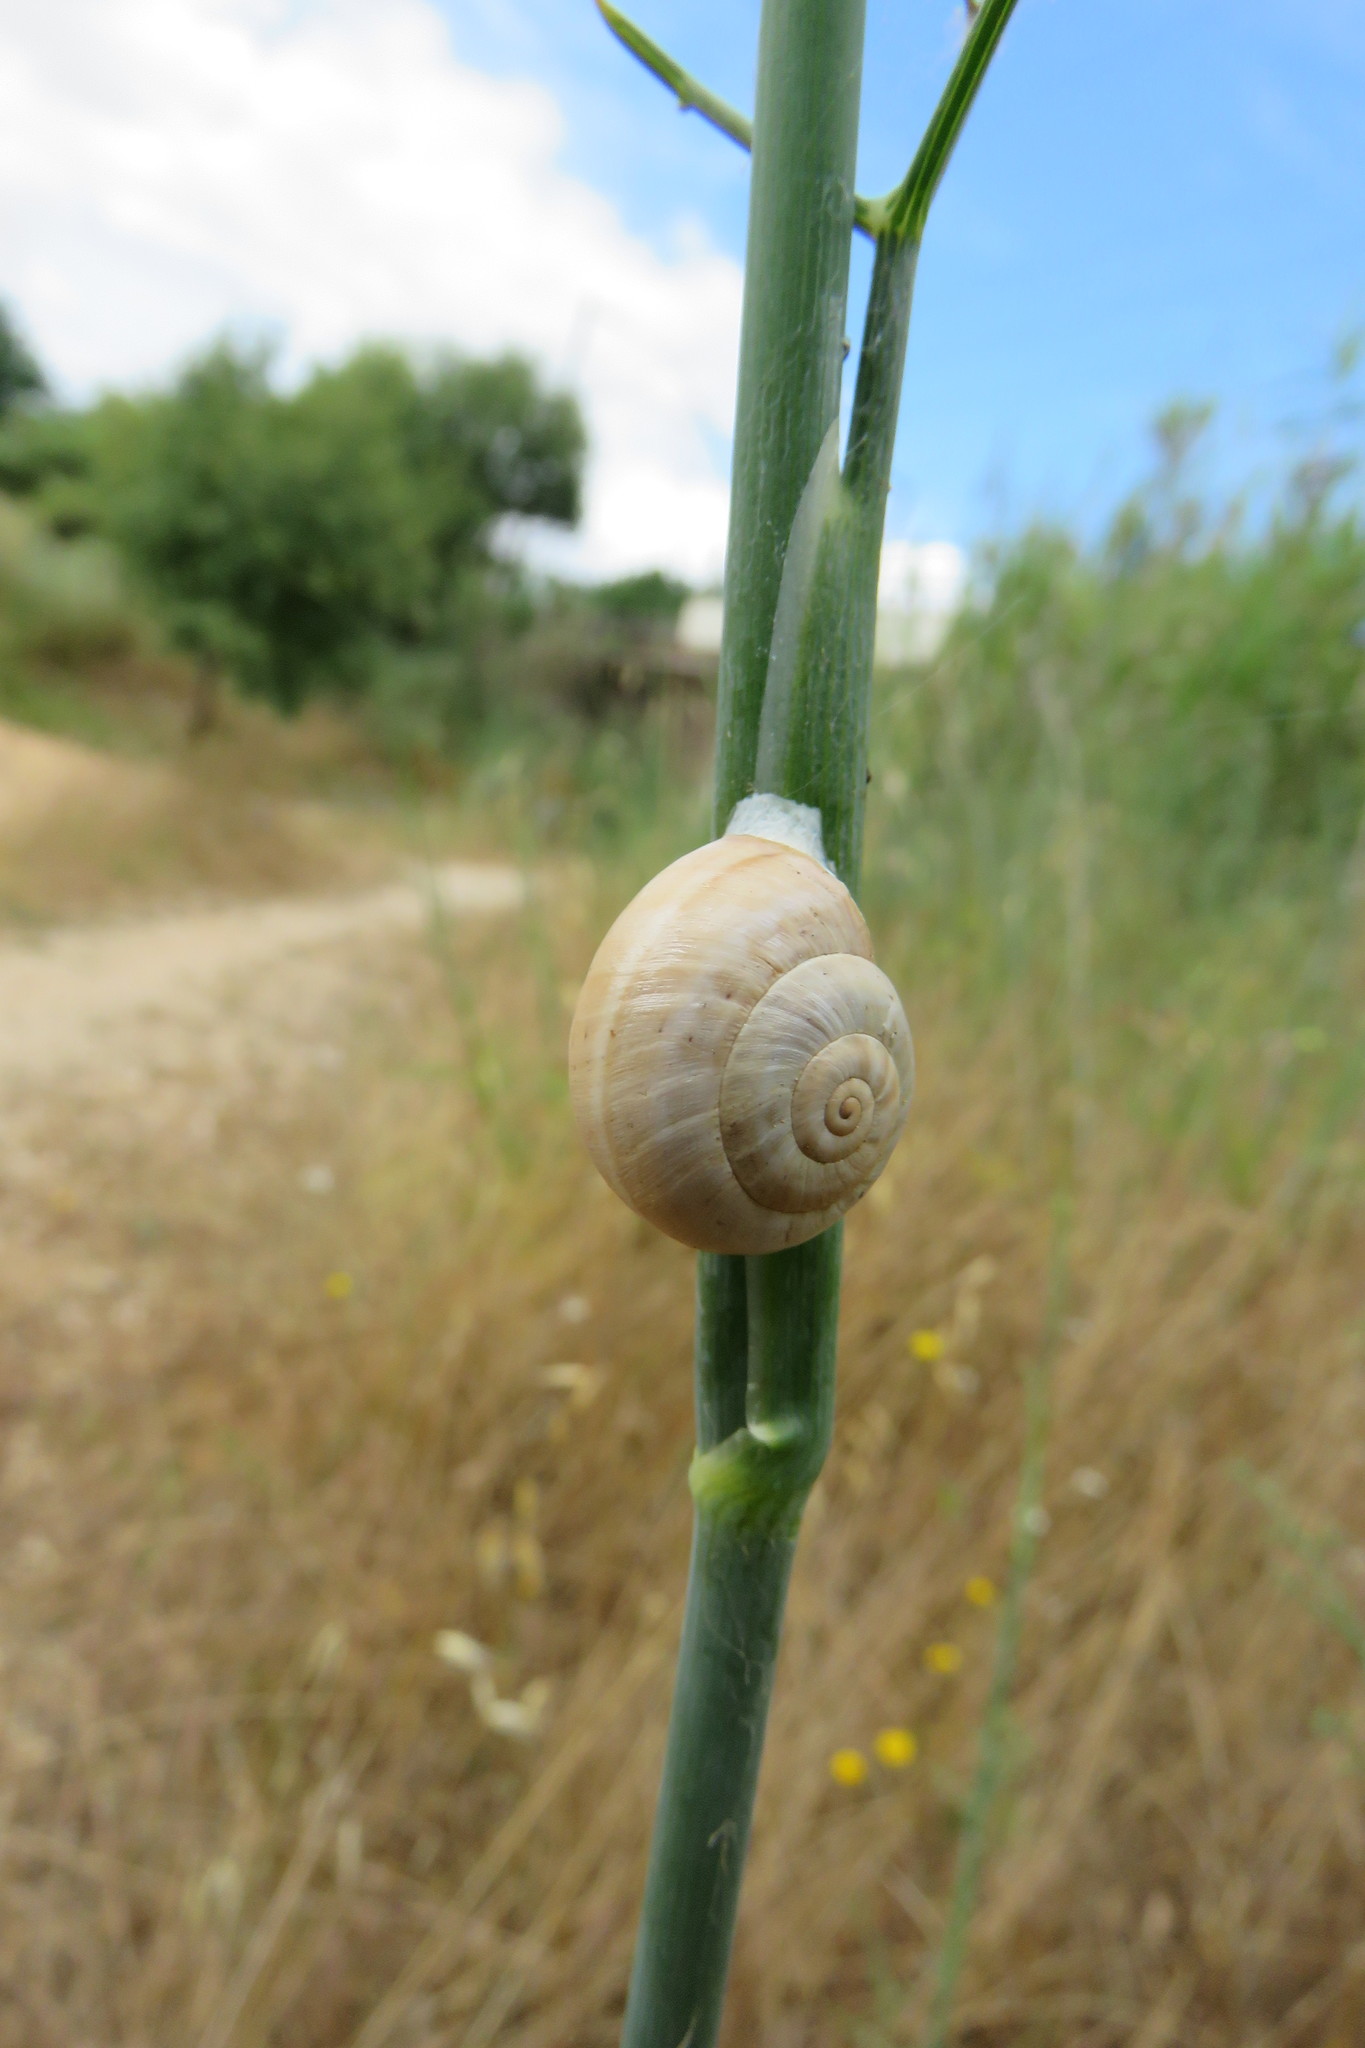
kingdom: Animalia
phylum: Mollusca
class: Gastropoda
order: Stylommatophora
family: Helicidae
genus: Theba
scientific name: Theba pisana
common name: White snail
